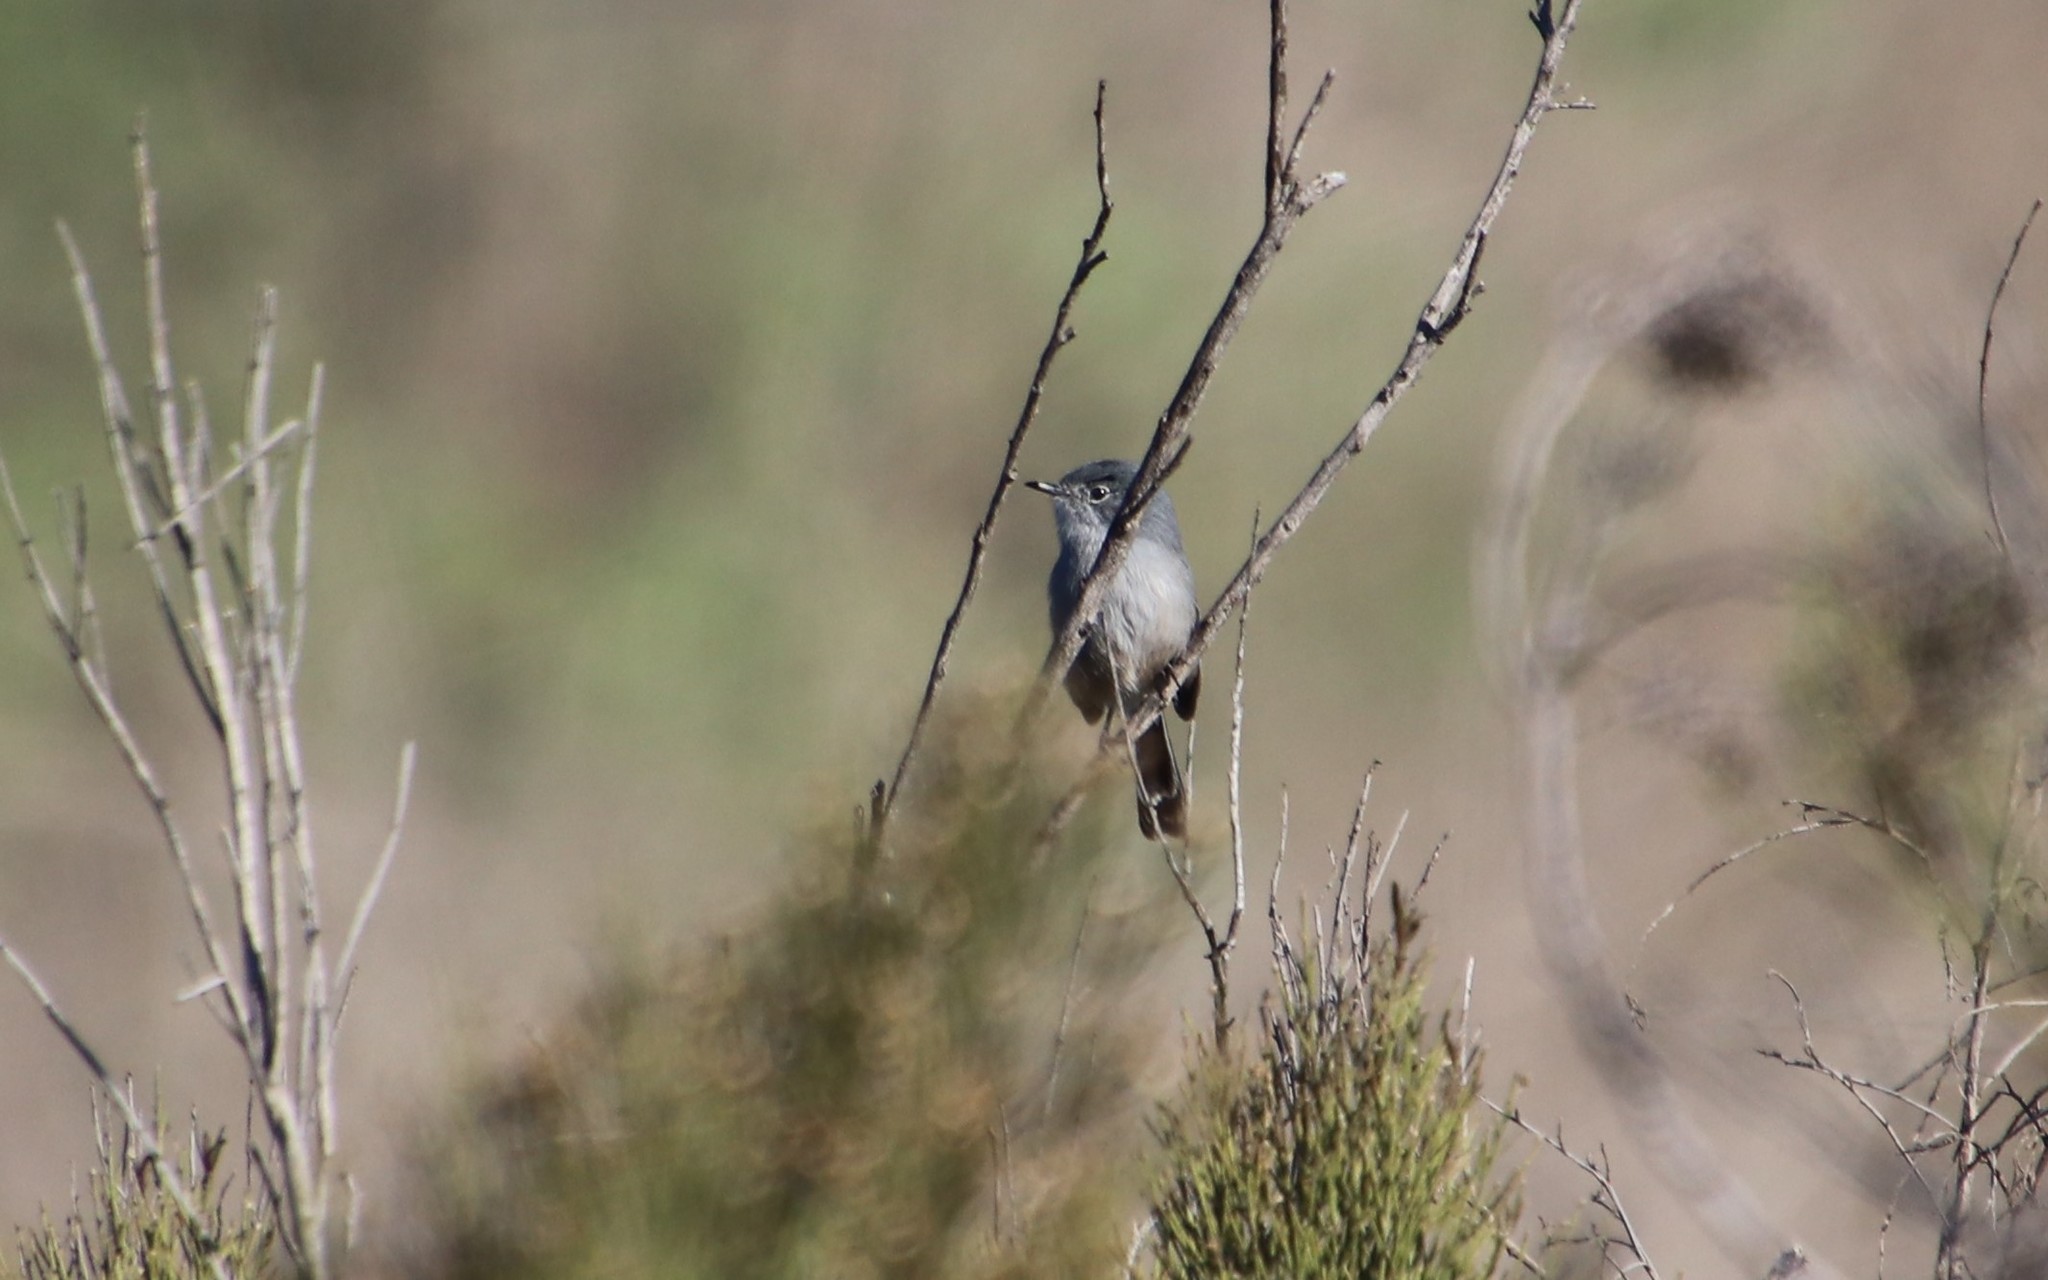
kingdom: Animalia
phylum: Chordata
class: Aves
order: Passeriformes
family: Polioptilidae
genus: Polioptila
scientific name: Polioptila californica
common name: California gnatcatcher
